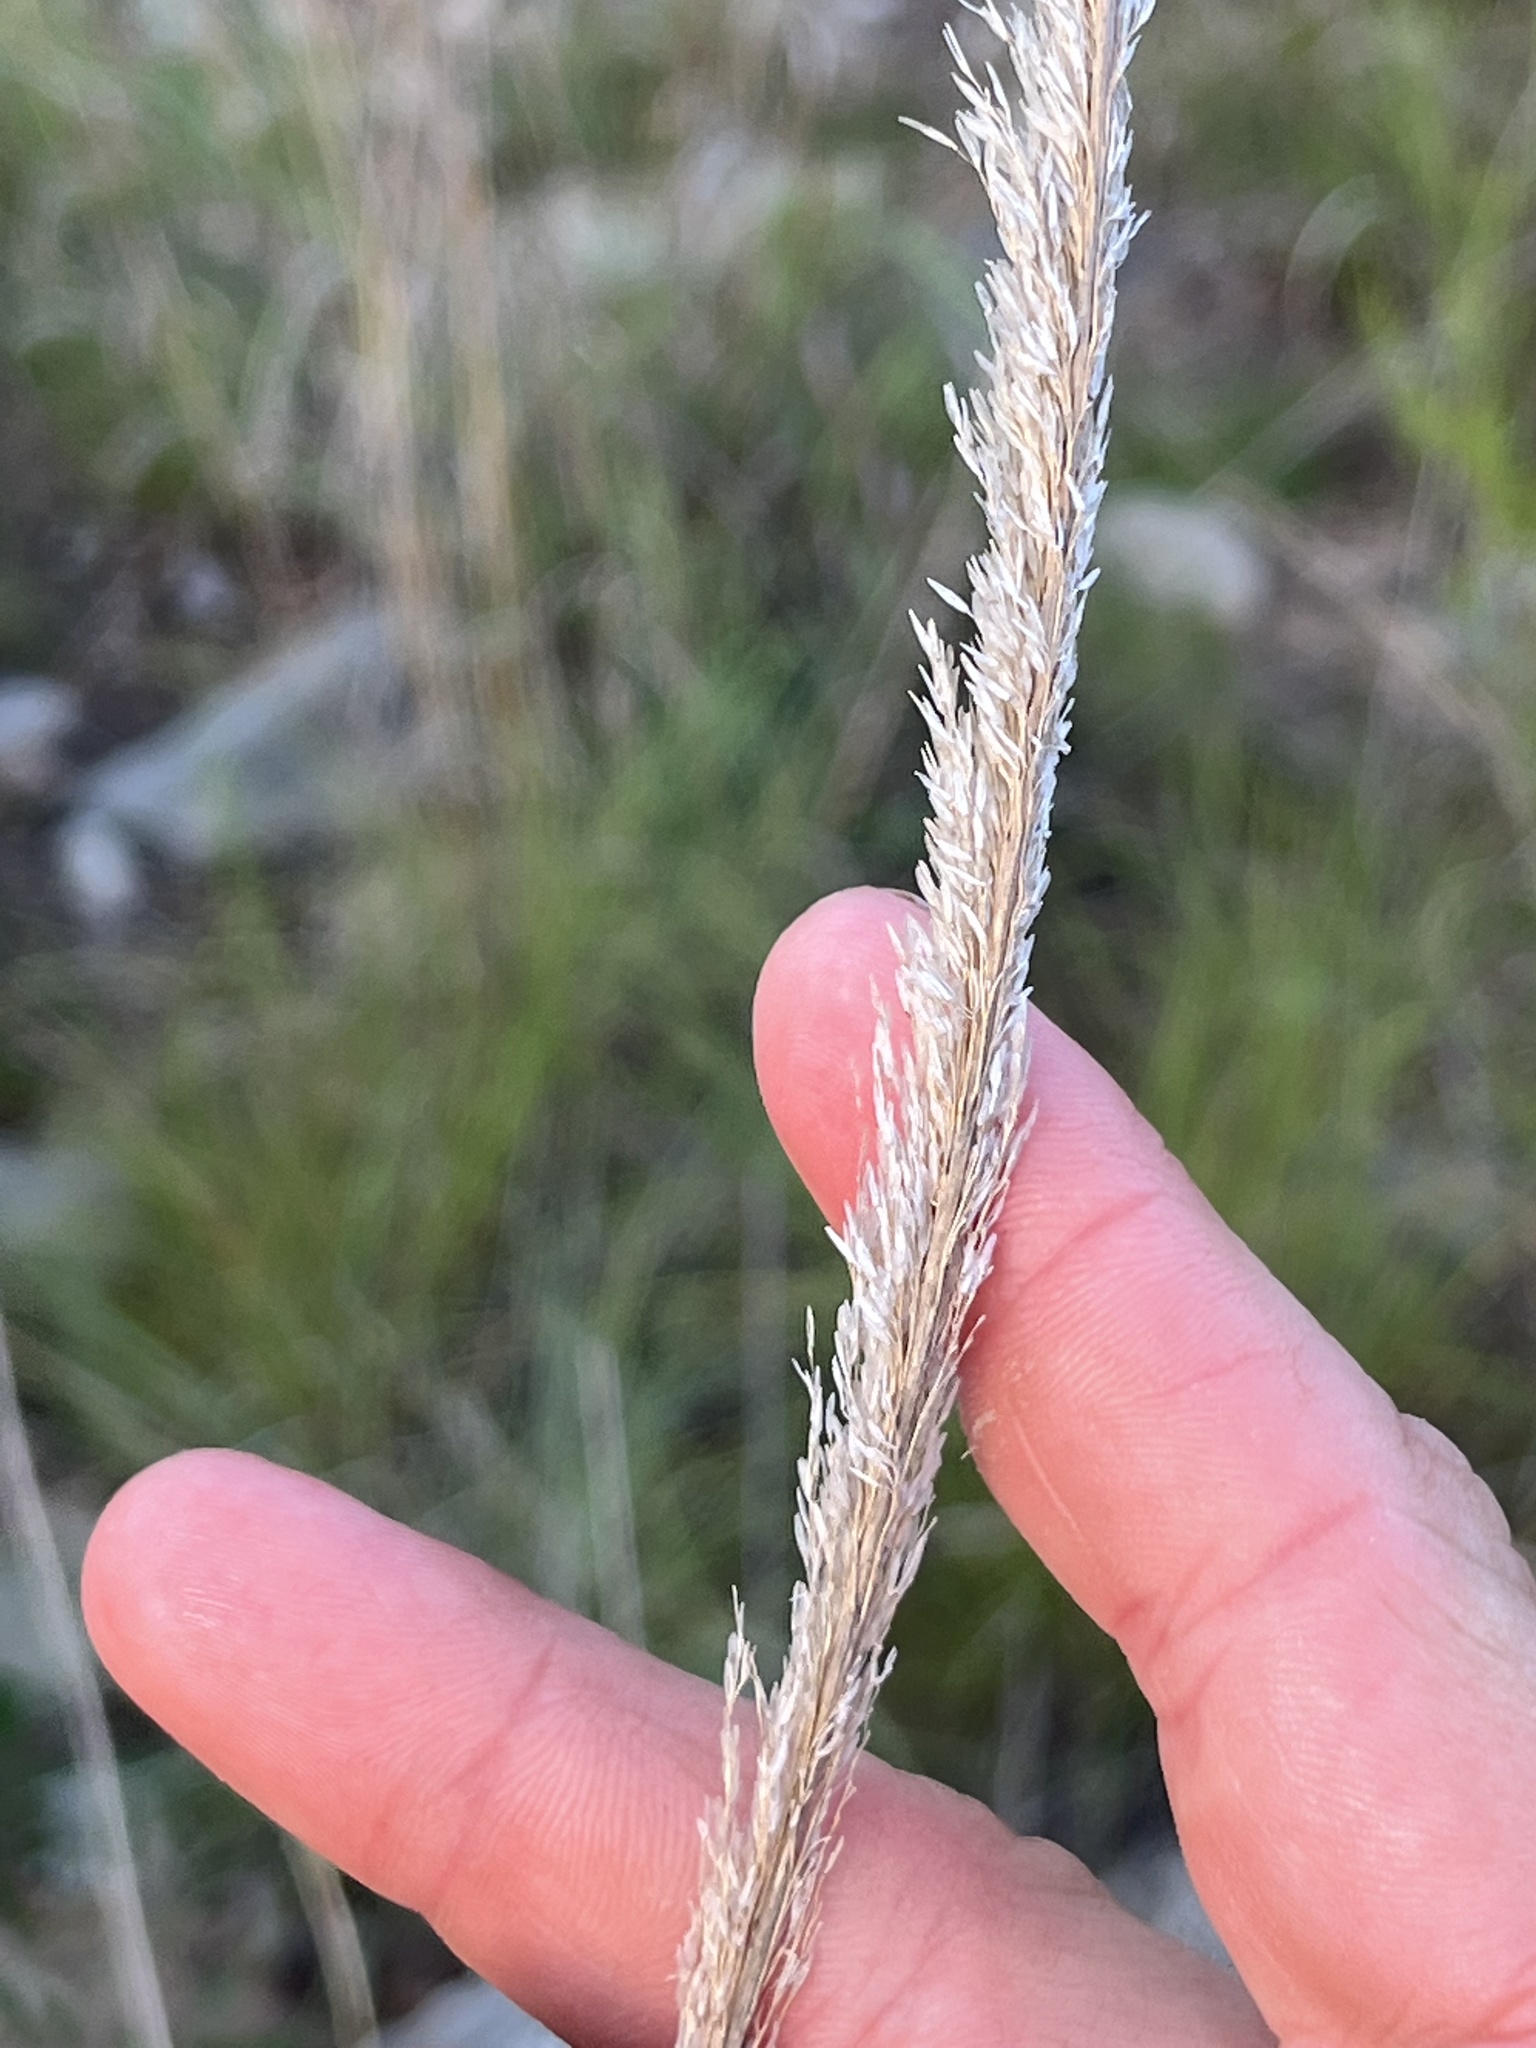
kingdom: Plantae
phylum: Tracheophyta
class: Liliopsida
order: Poales
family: Poaceae
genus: Muhlenbergia
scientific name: Muhlenbergia lindheimeri
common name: Lindheimer's muhly
